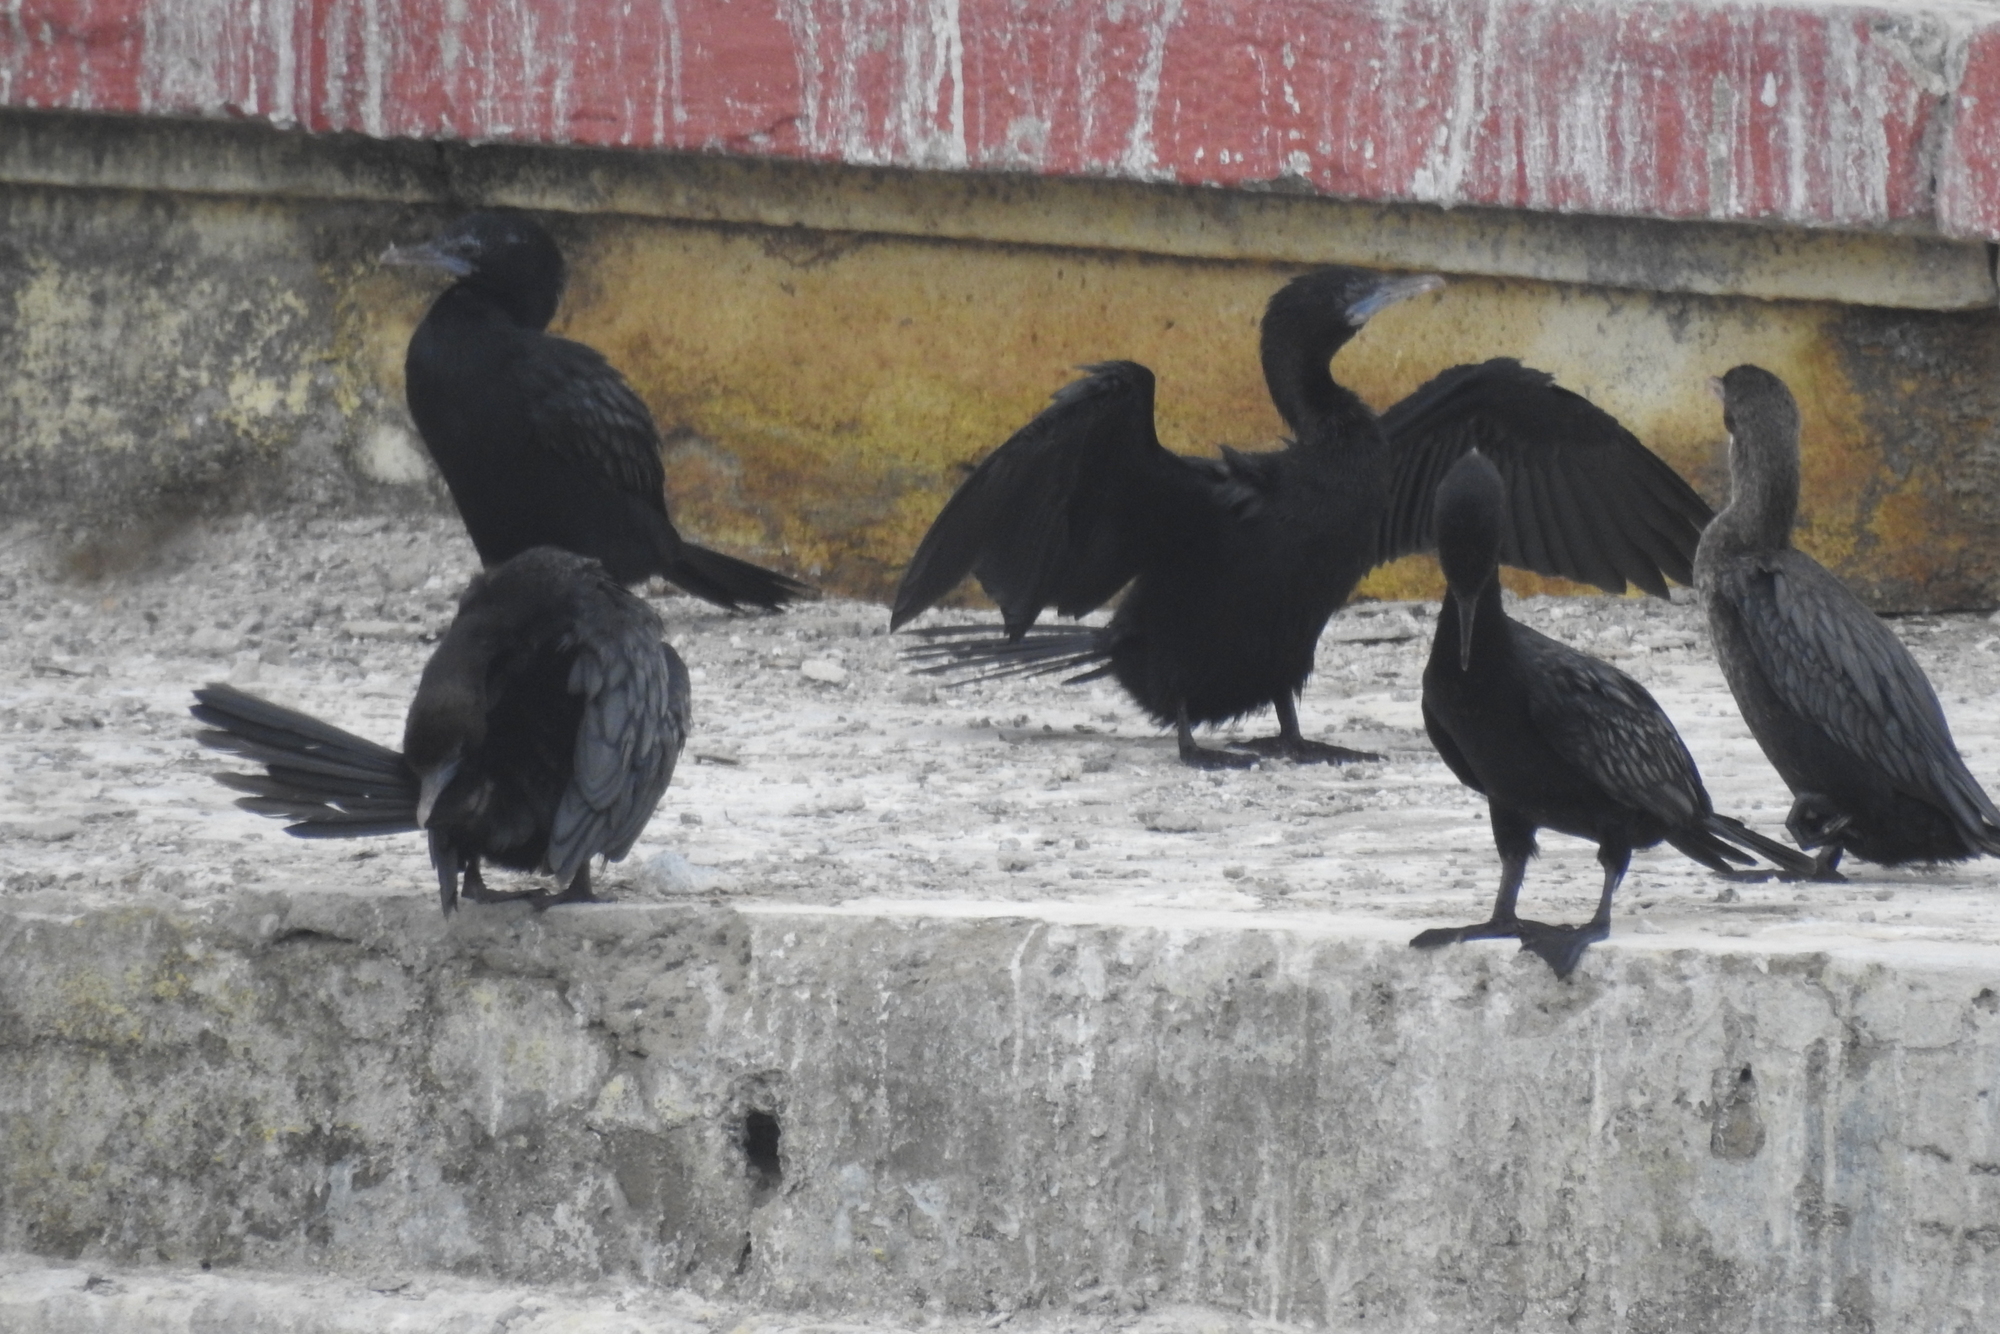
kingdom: Animalia
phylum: Chordata
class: Aves
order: Suliformes
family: Phalacrocoracidae
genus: Microcarbo
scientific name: Microcarbo niger
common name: Little cormorant
